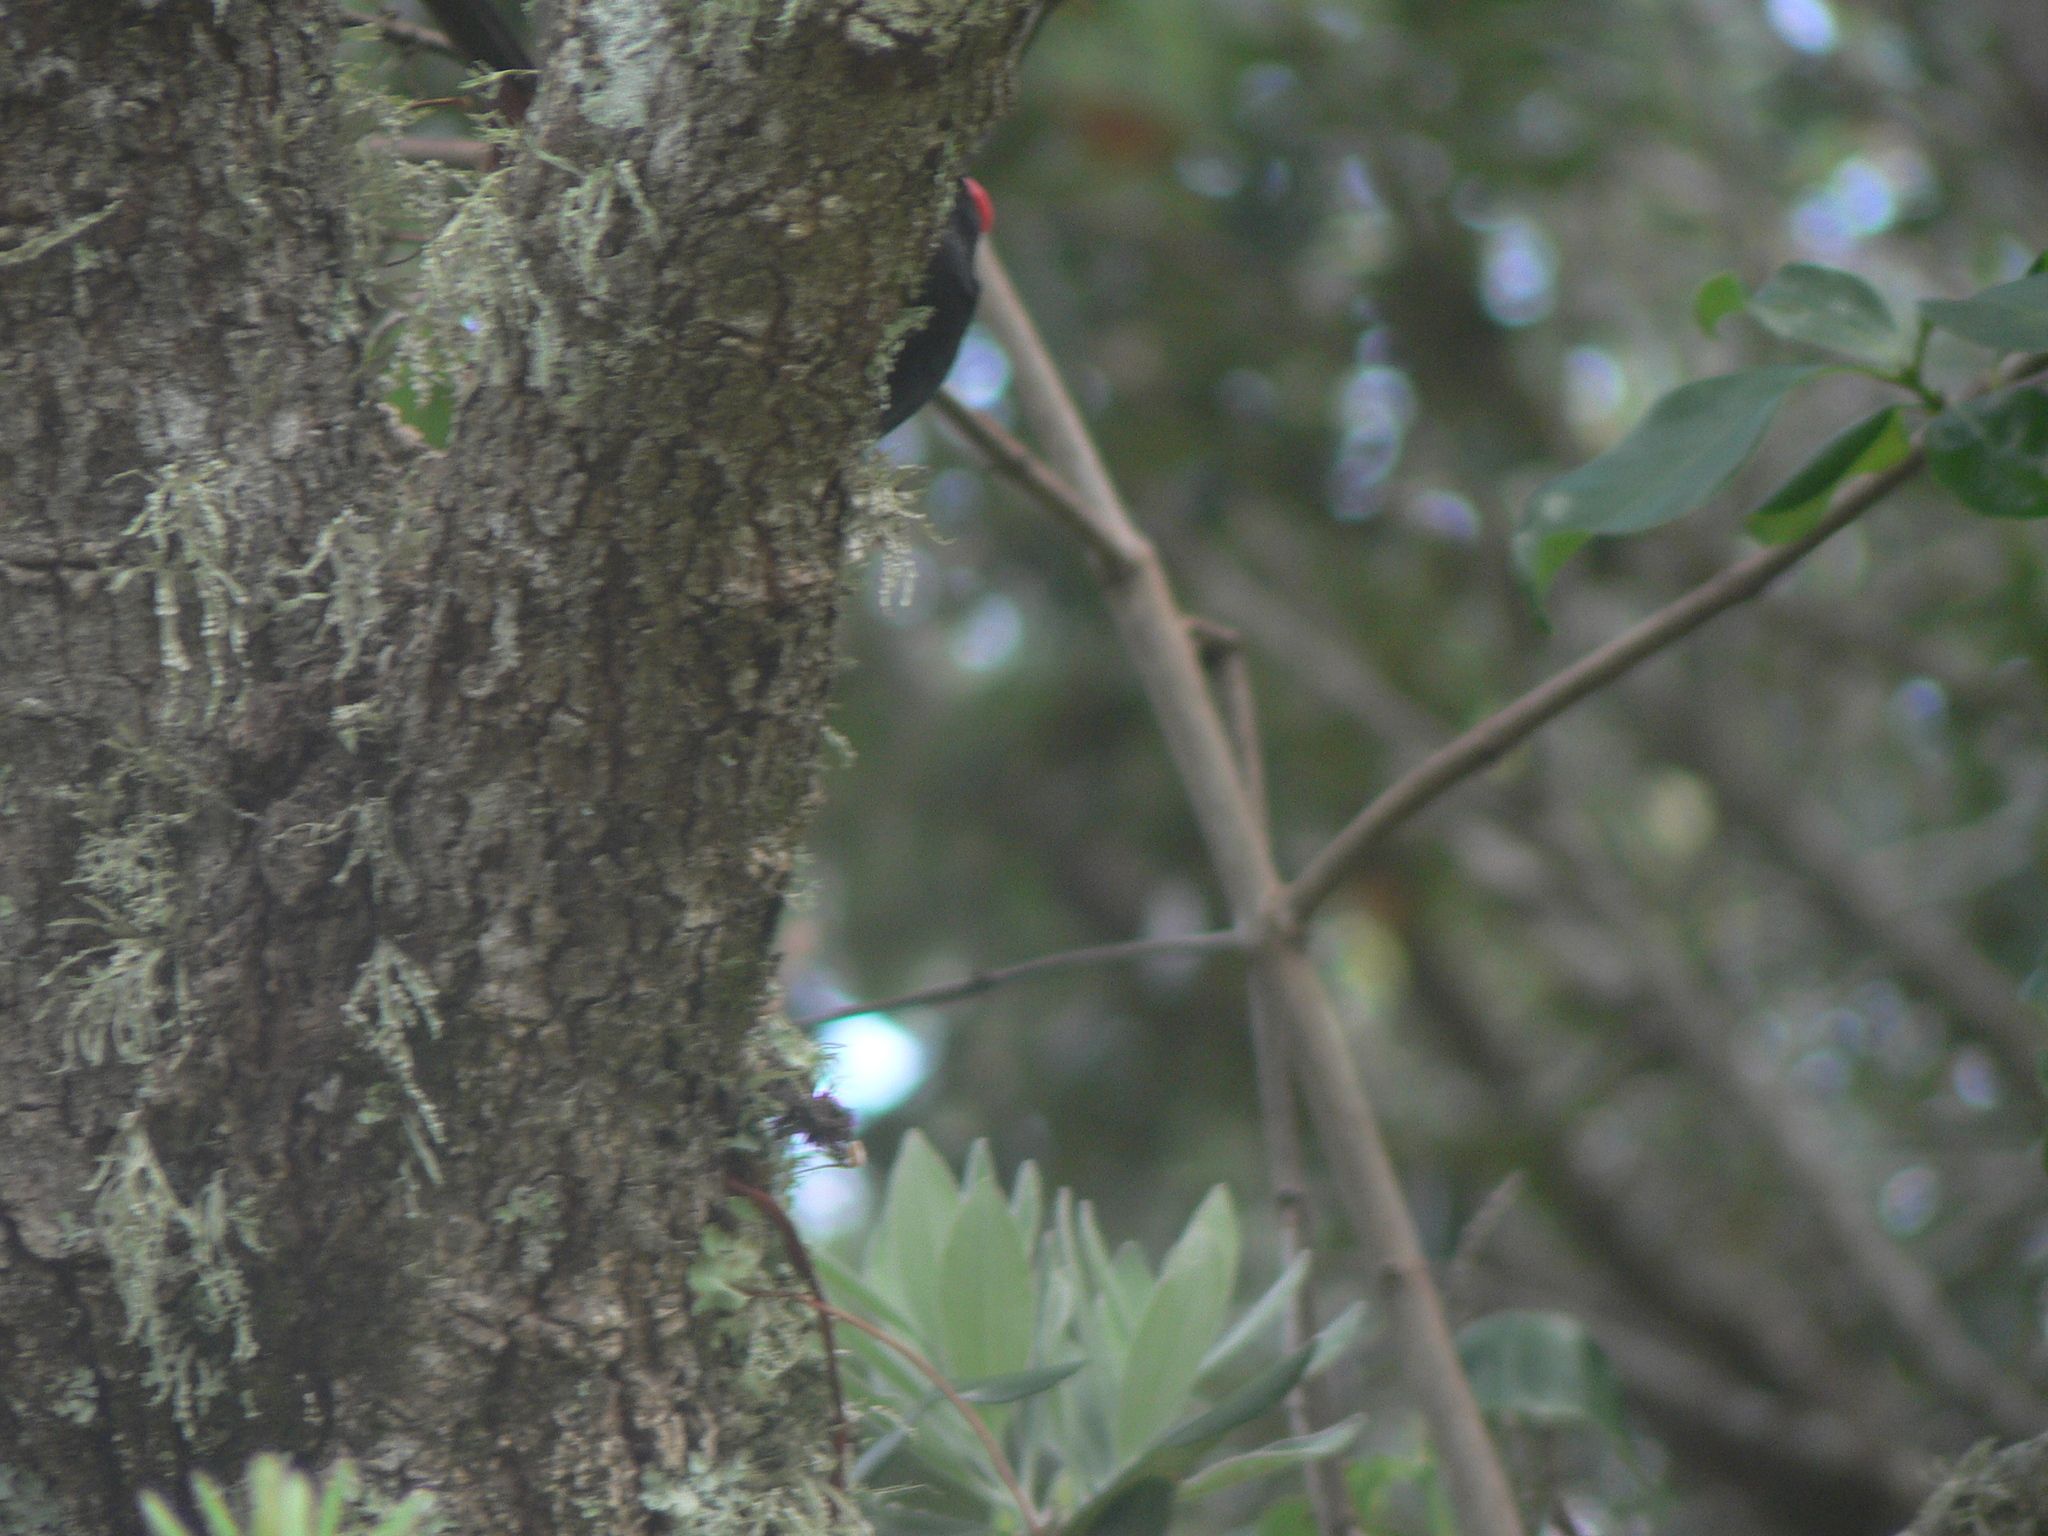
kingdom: Animalia
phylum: Chordata
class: Aves
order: Passeriformes
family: Callaeatidae
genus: Philesturnus
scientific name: Philesturnus carunculatus
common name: South island saddleback
